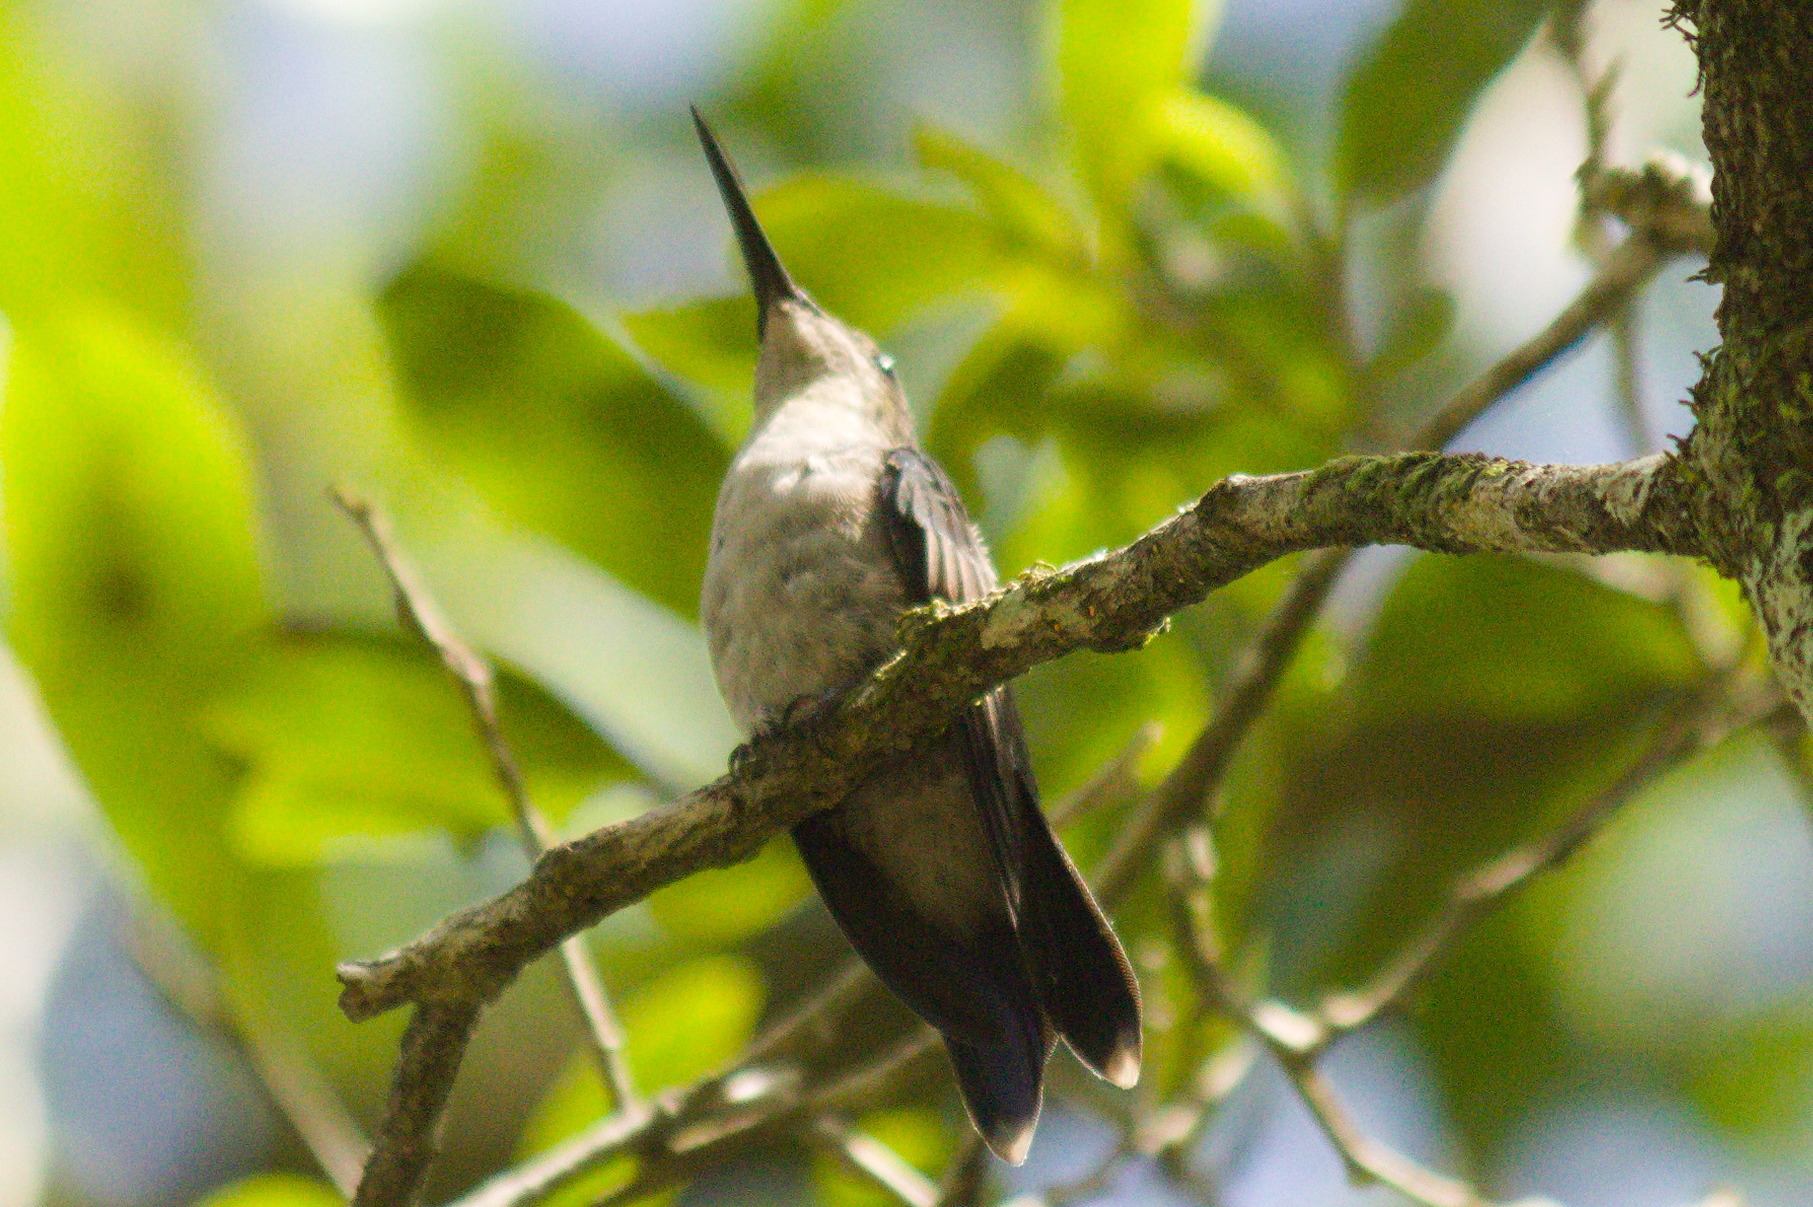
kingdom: Animalia
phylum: Chordata
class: Aves
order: Apodiformes
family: Trochilidae
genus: Thalurania
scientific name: Thalurania glaucopis
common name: Violet-capped woodnymph
